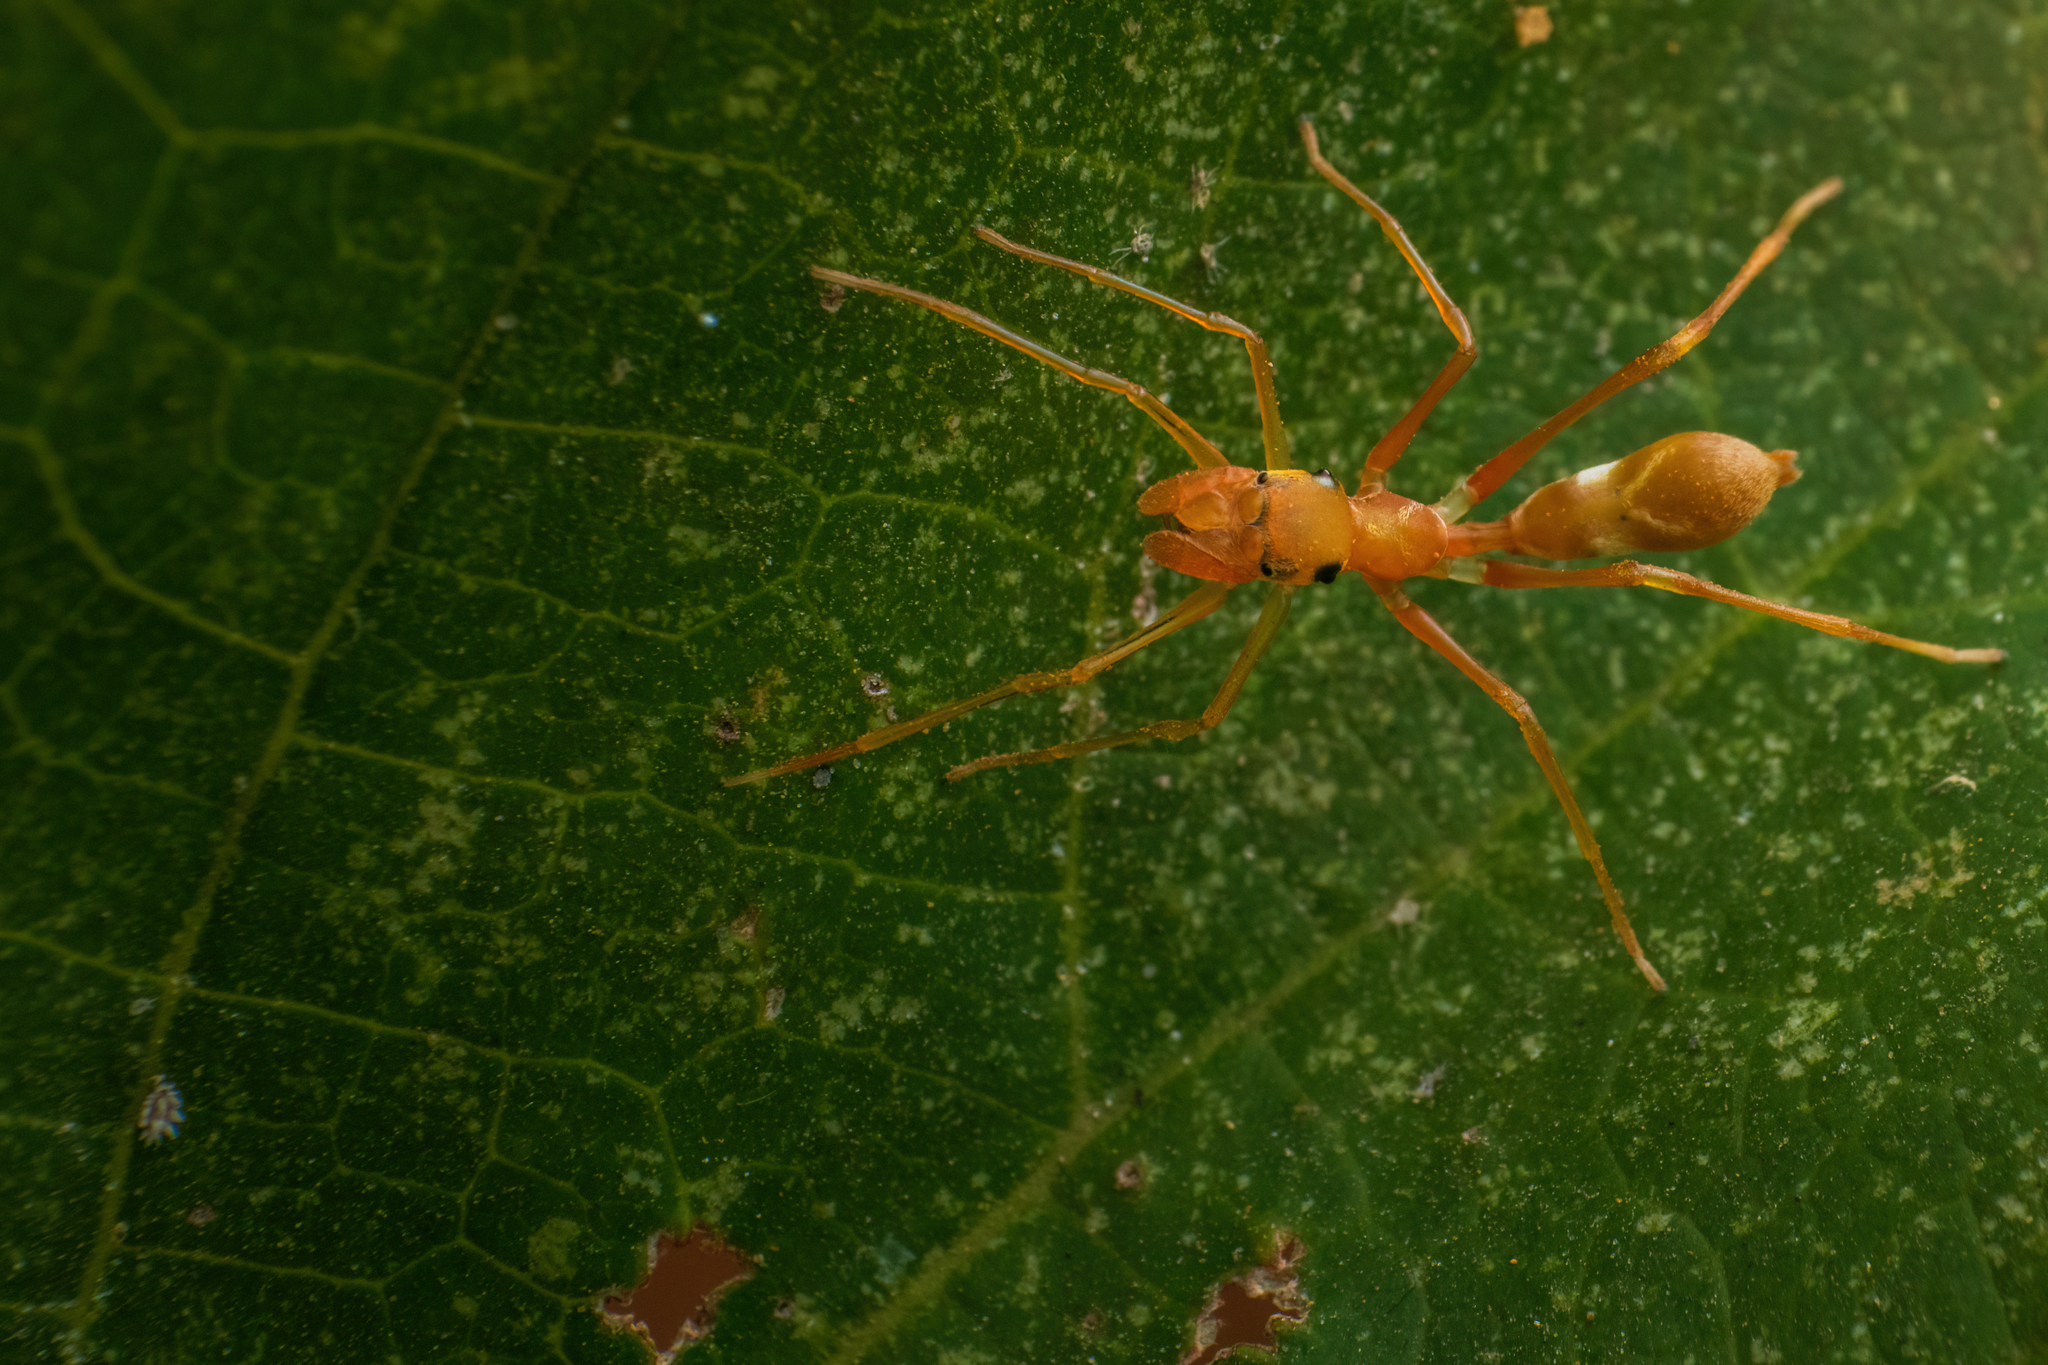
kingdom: Animalia
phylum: Arthropoda
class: Arachnida
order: Araneae
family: Salticidae
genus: Myrmaplata
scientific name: Myrmaplata plataleoides
